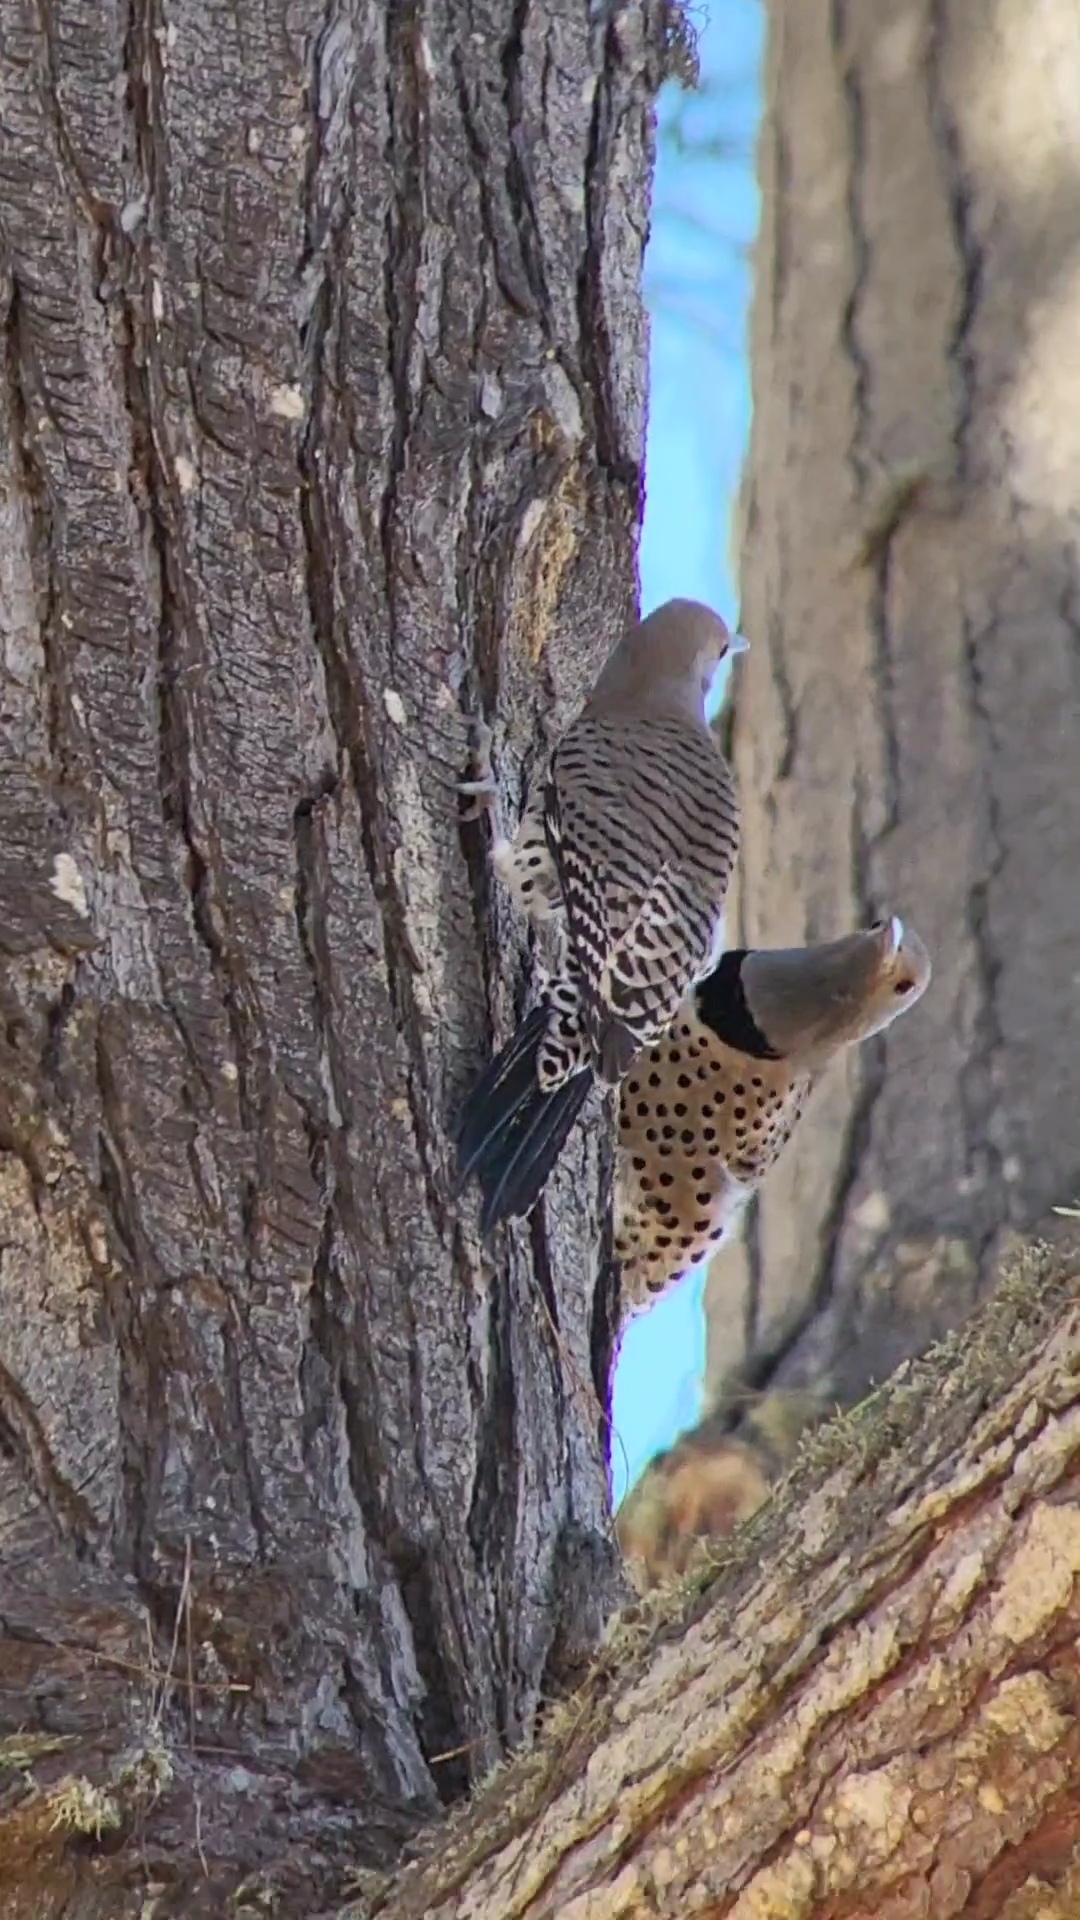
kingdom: Animalia
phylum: Chordata
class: Aves
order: Piciformes
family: Picidae
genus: Colaptes
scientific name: Colaptes auratus
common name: Northern flicker
